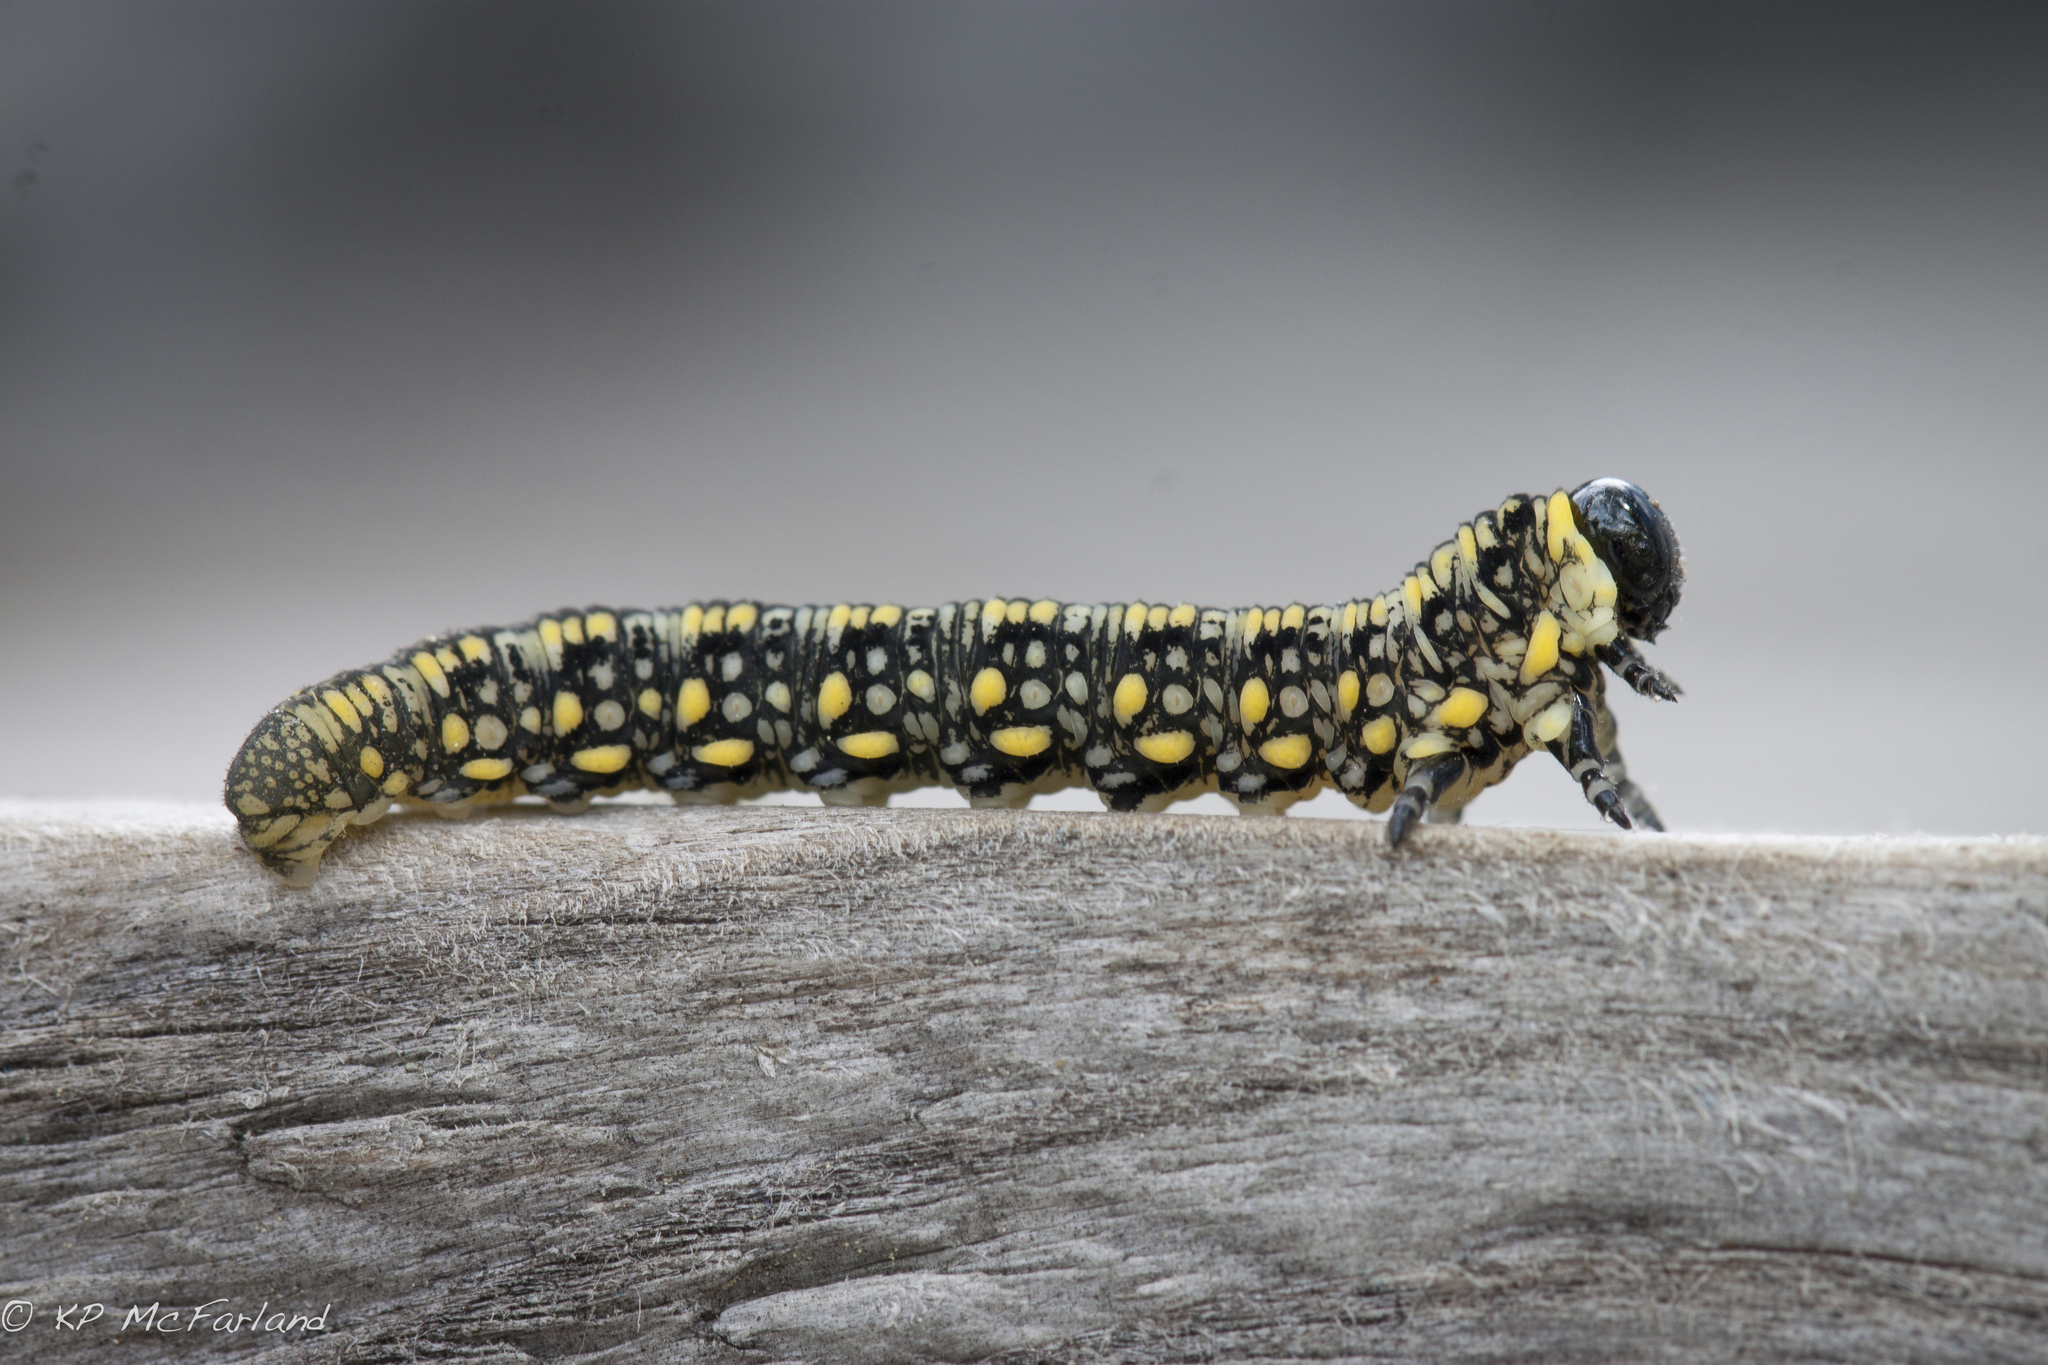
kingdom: Animalia
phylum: Arthropoda
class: Insecta
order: Hymenoptera
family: Diprionidae
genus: Diprion
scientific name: Diprion similis
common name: Pine sawfly
